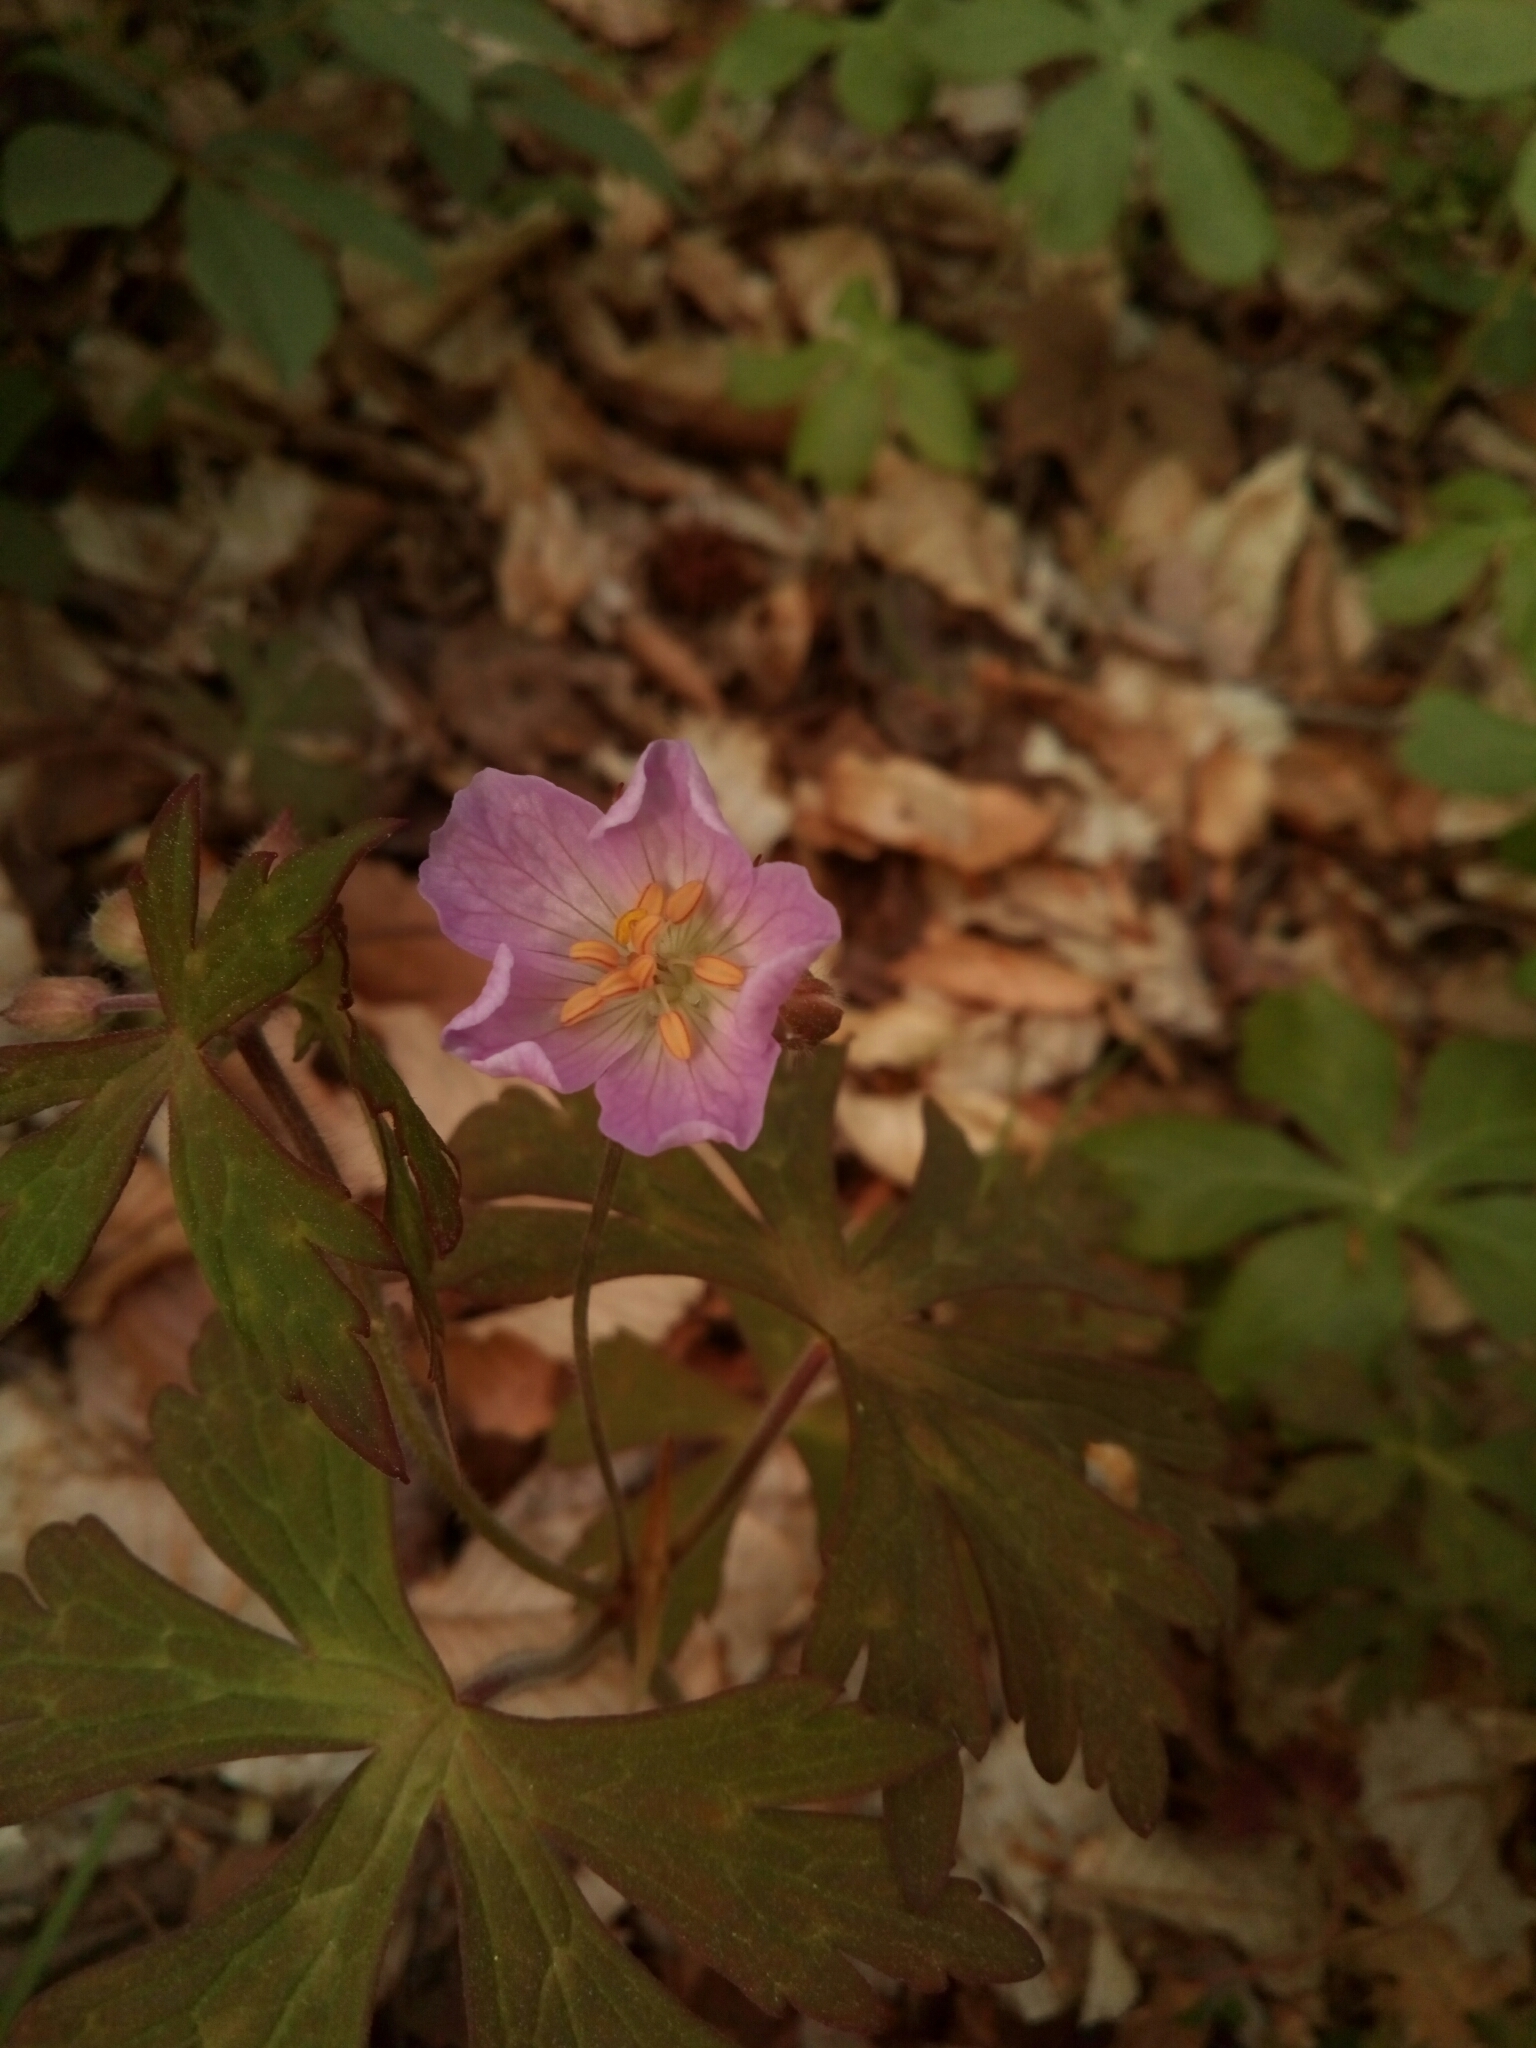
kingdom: Plantae
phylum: Tracheophyta
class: Magnoliopsida
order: Geraniales
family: Geraniaceae
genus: Geranium
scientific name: Geranium maculatum
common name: Spotted geranium
